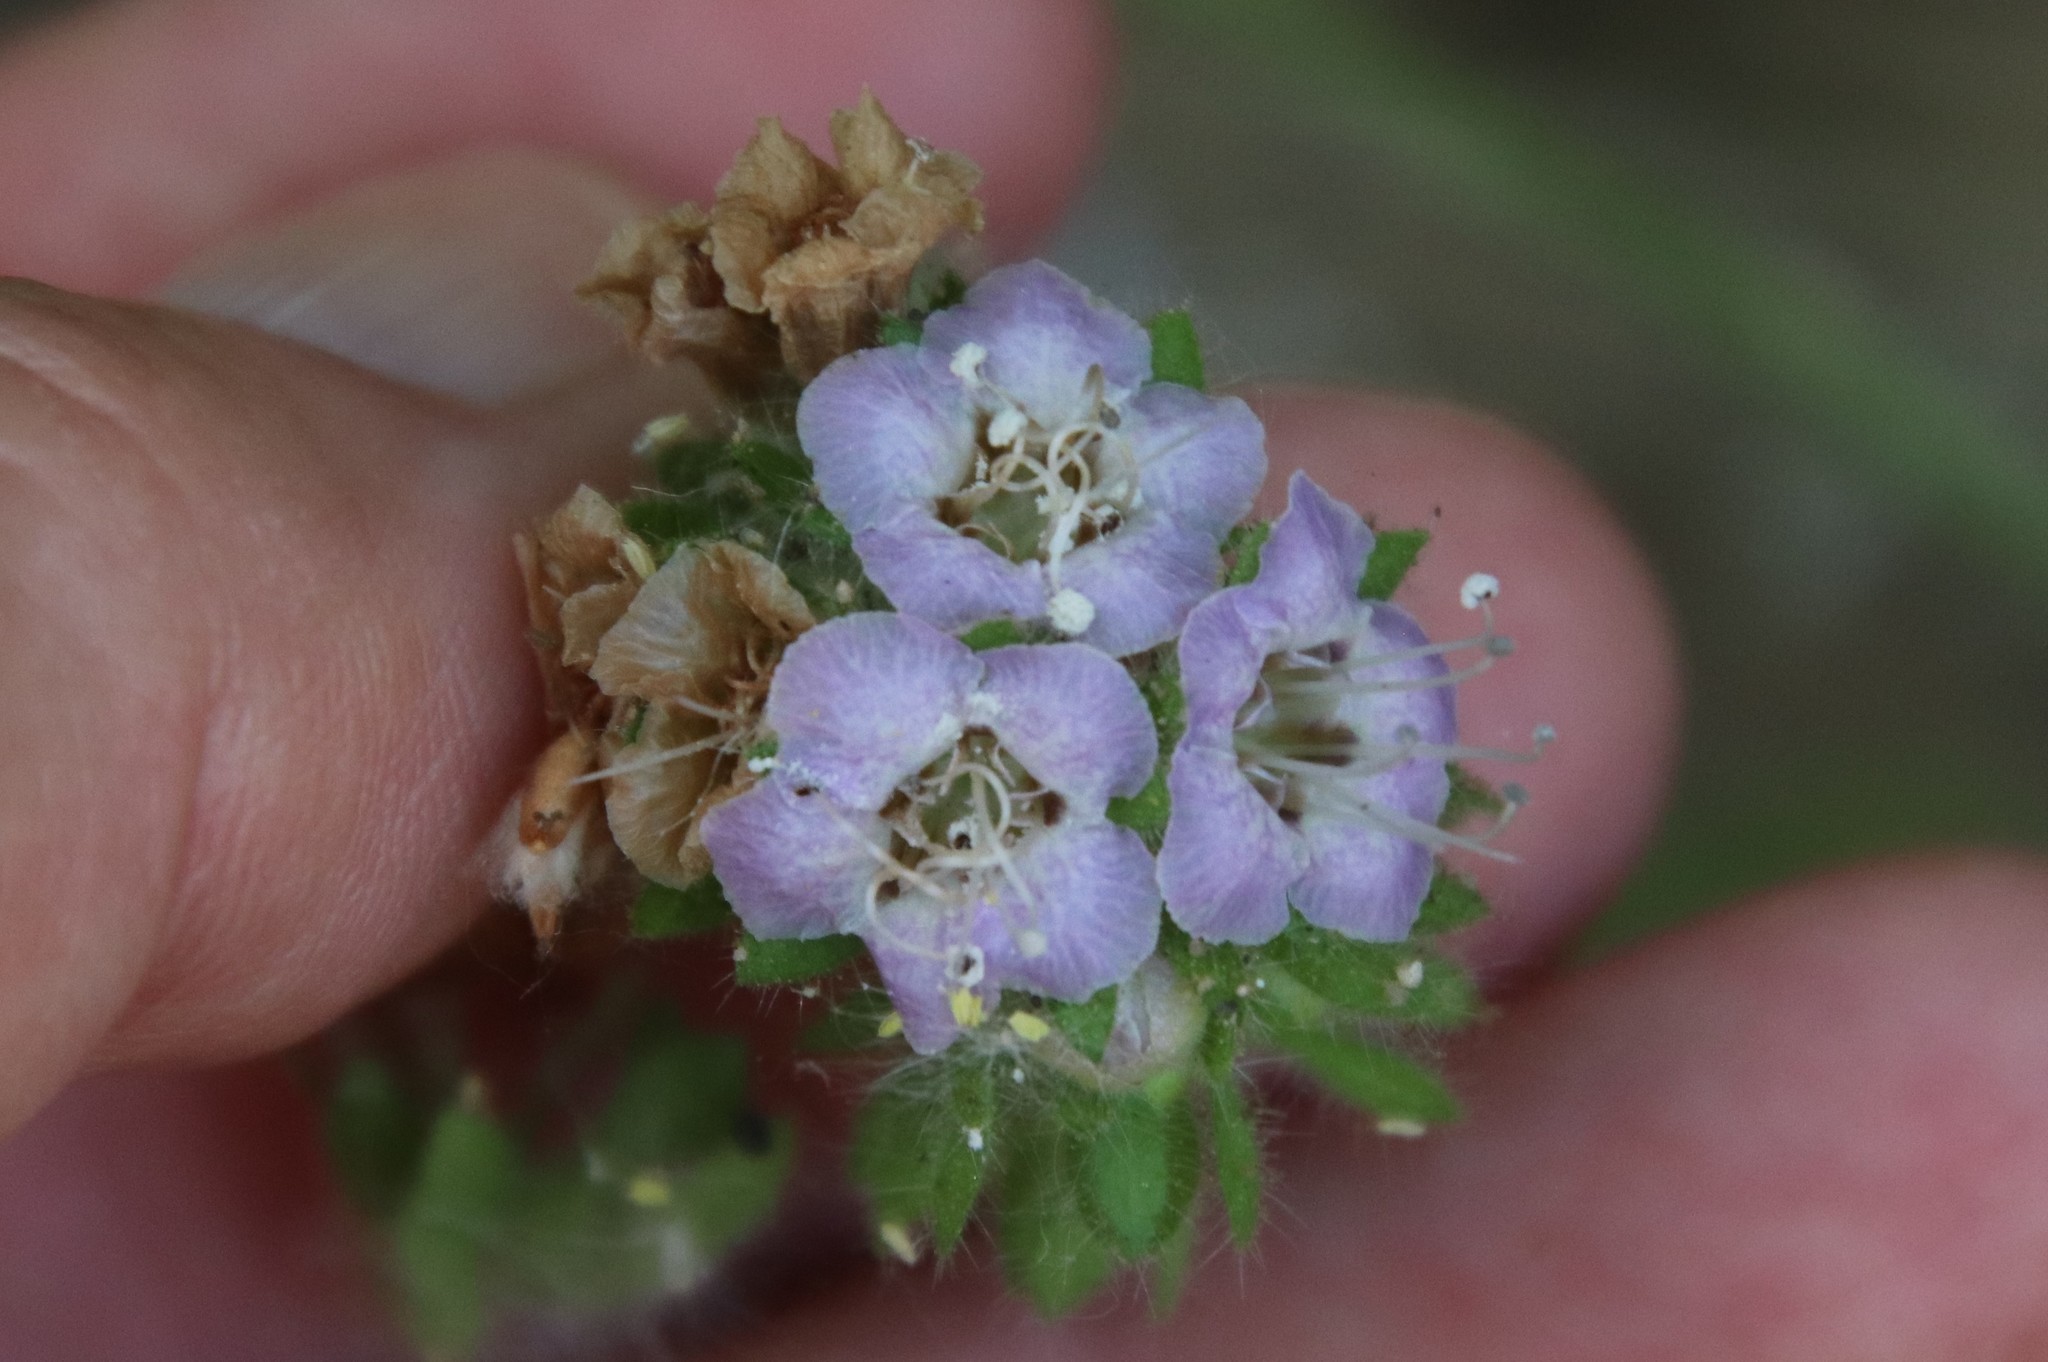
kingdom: Plantae
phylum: Tracheophyta
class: Magnoliopsida
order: Boraginales
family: Hydrophyllaceae
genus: Phacelia
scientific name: Phacelia ramosissima
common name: Branching phacelia
